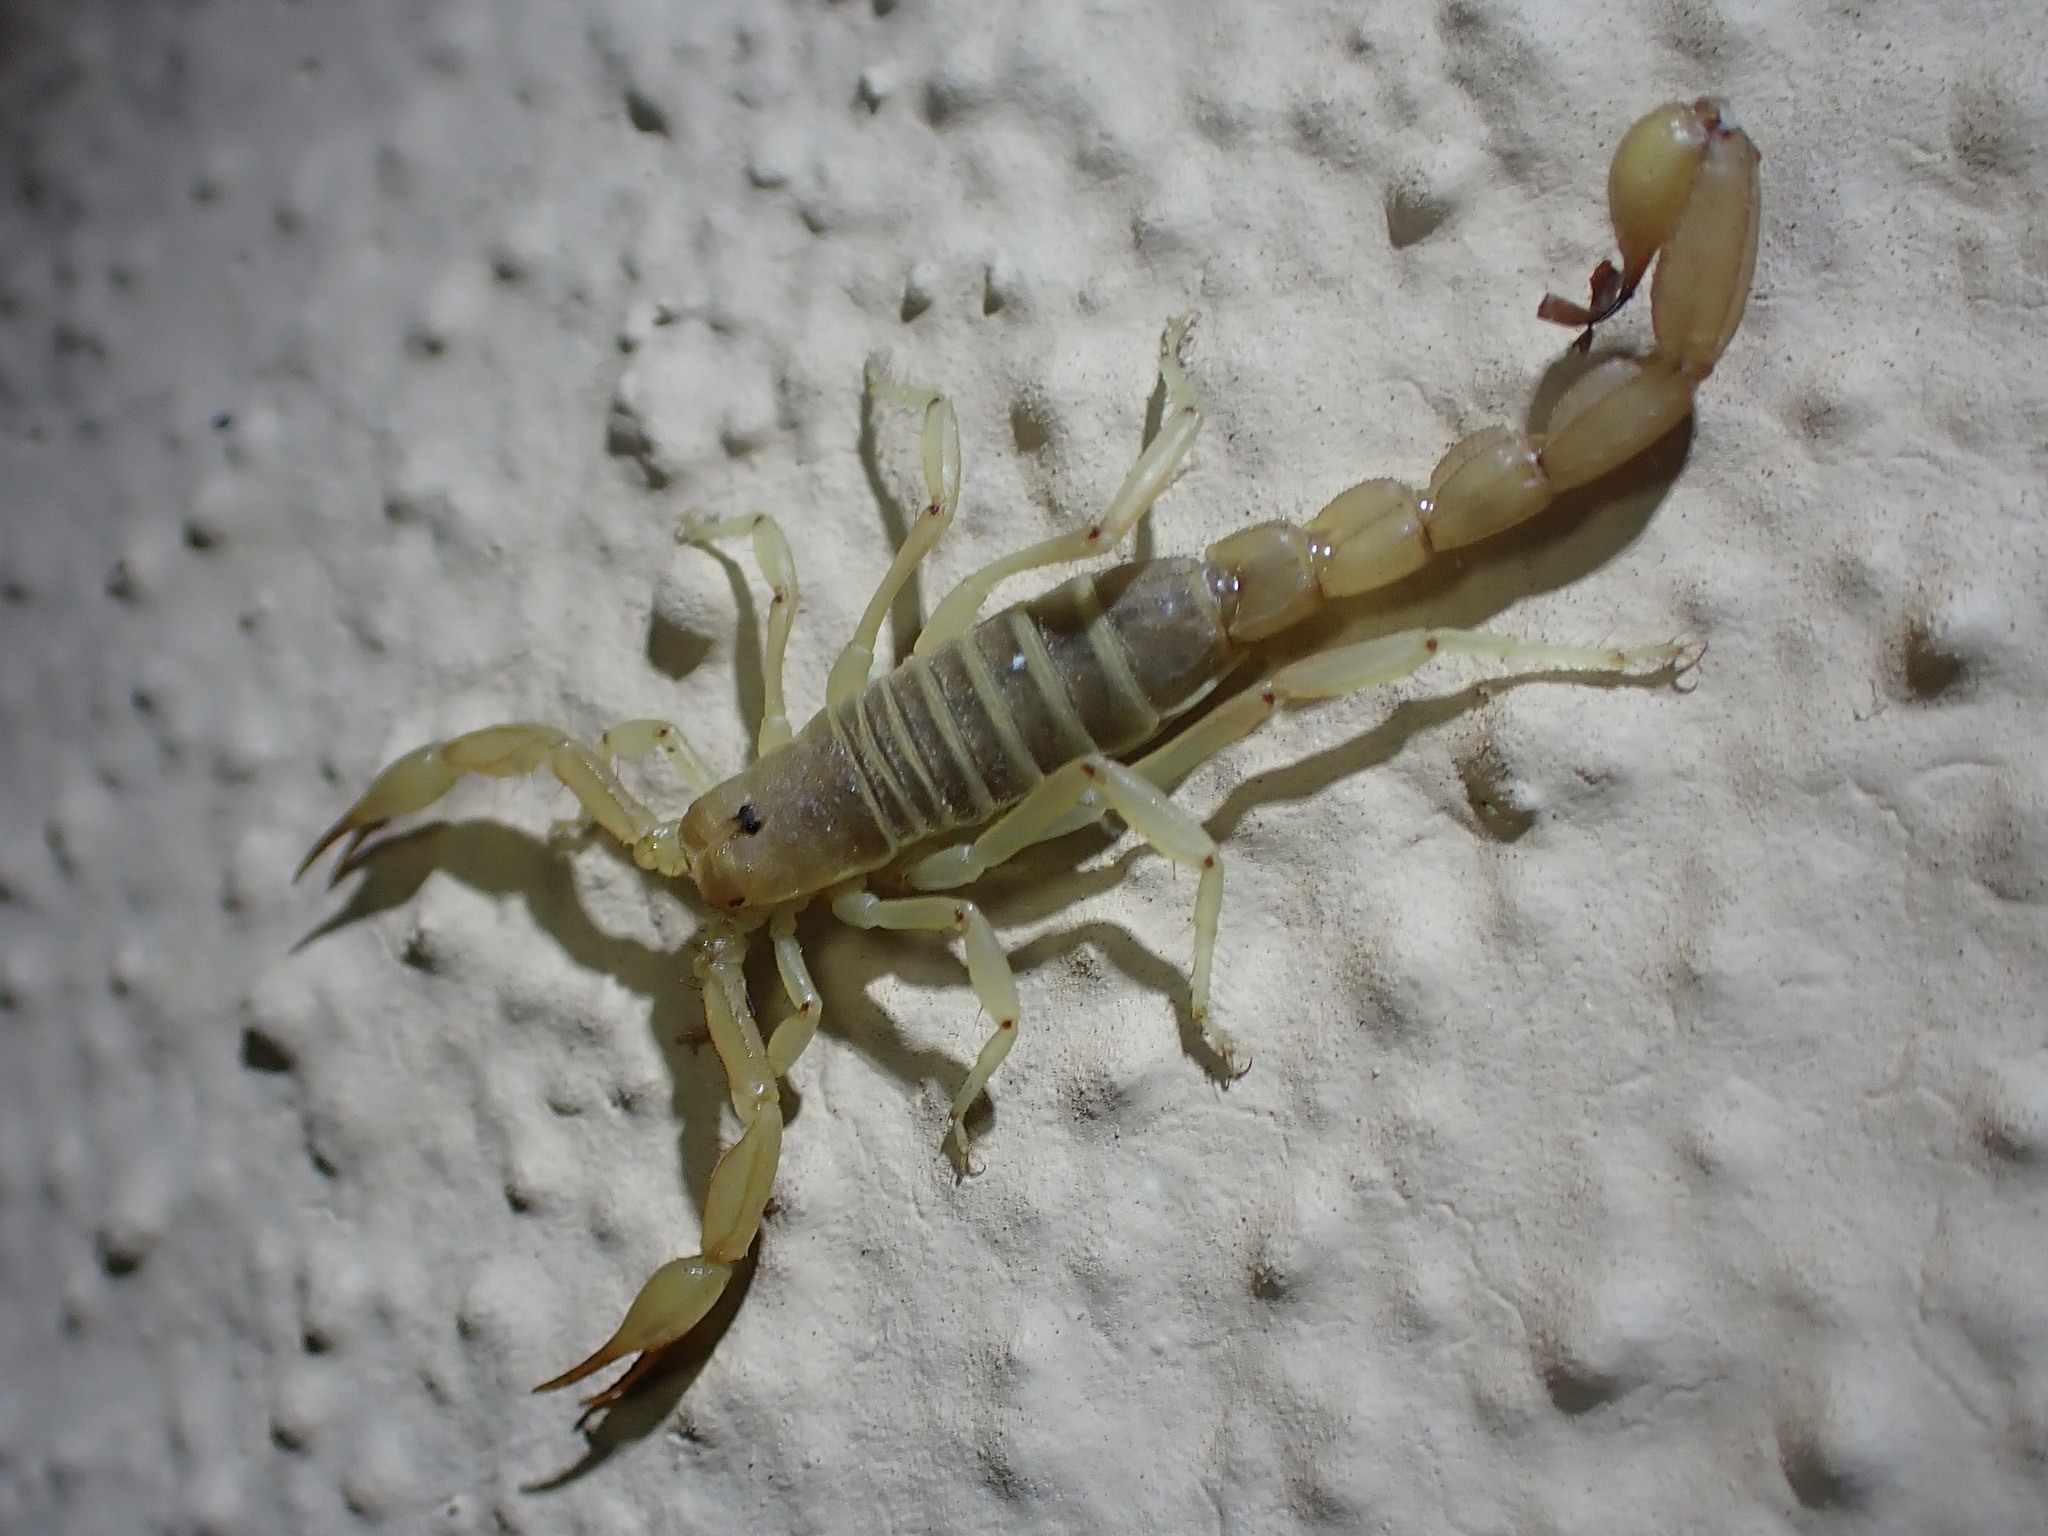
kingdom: Animalia
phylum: Arthropoda
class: Arachnida
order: Scorpiones
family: Vaejovidae
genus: Paravaejovis
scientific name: Paravaejovis confusus
